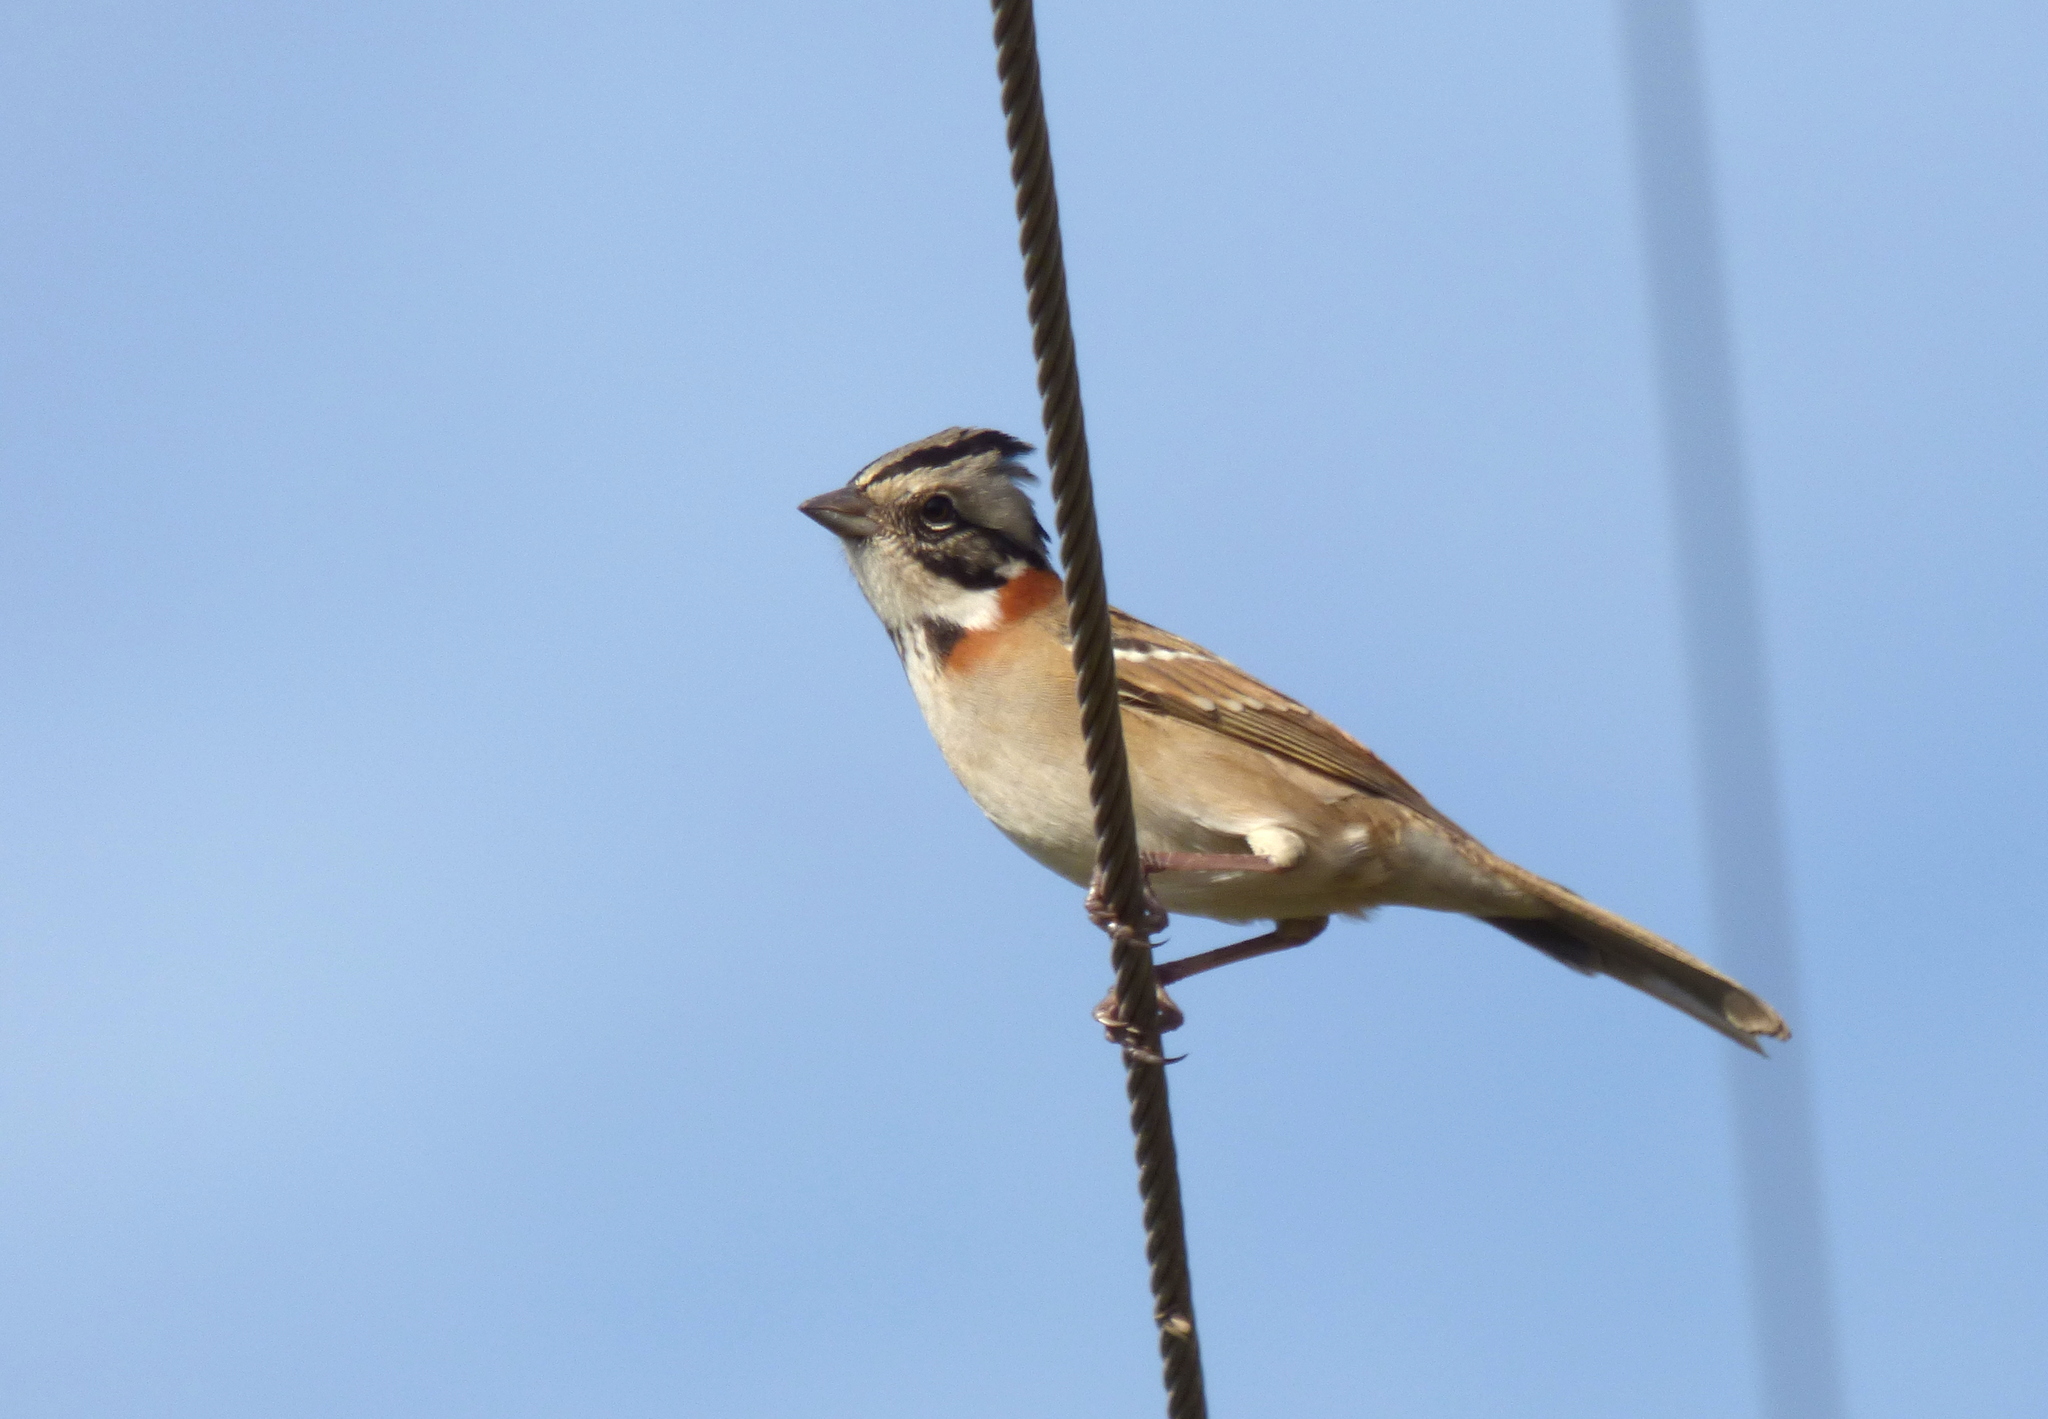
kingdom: Animalia
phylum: Chordata
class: Aves
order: Passeriformes
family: Passerellidae
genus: Zonotrichia
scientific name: Zonotrichia capensis
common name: Rufous-collared sparrow
